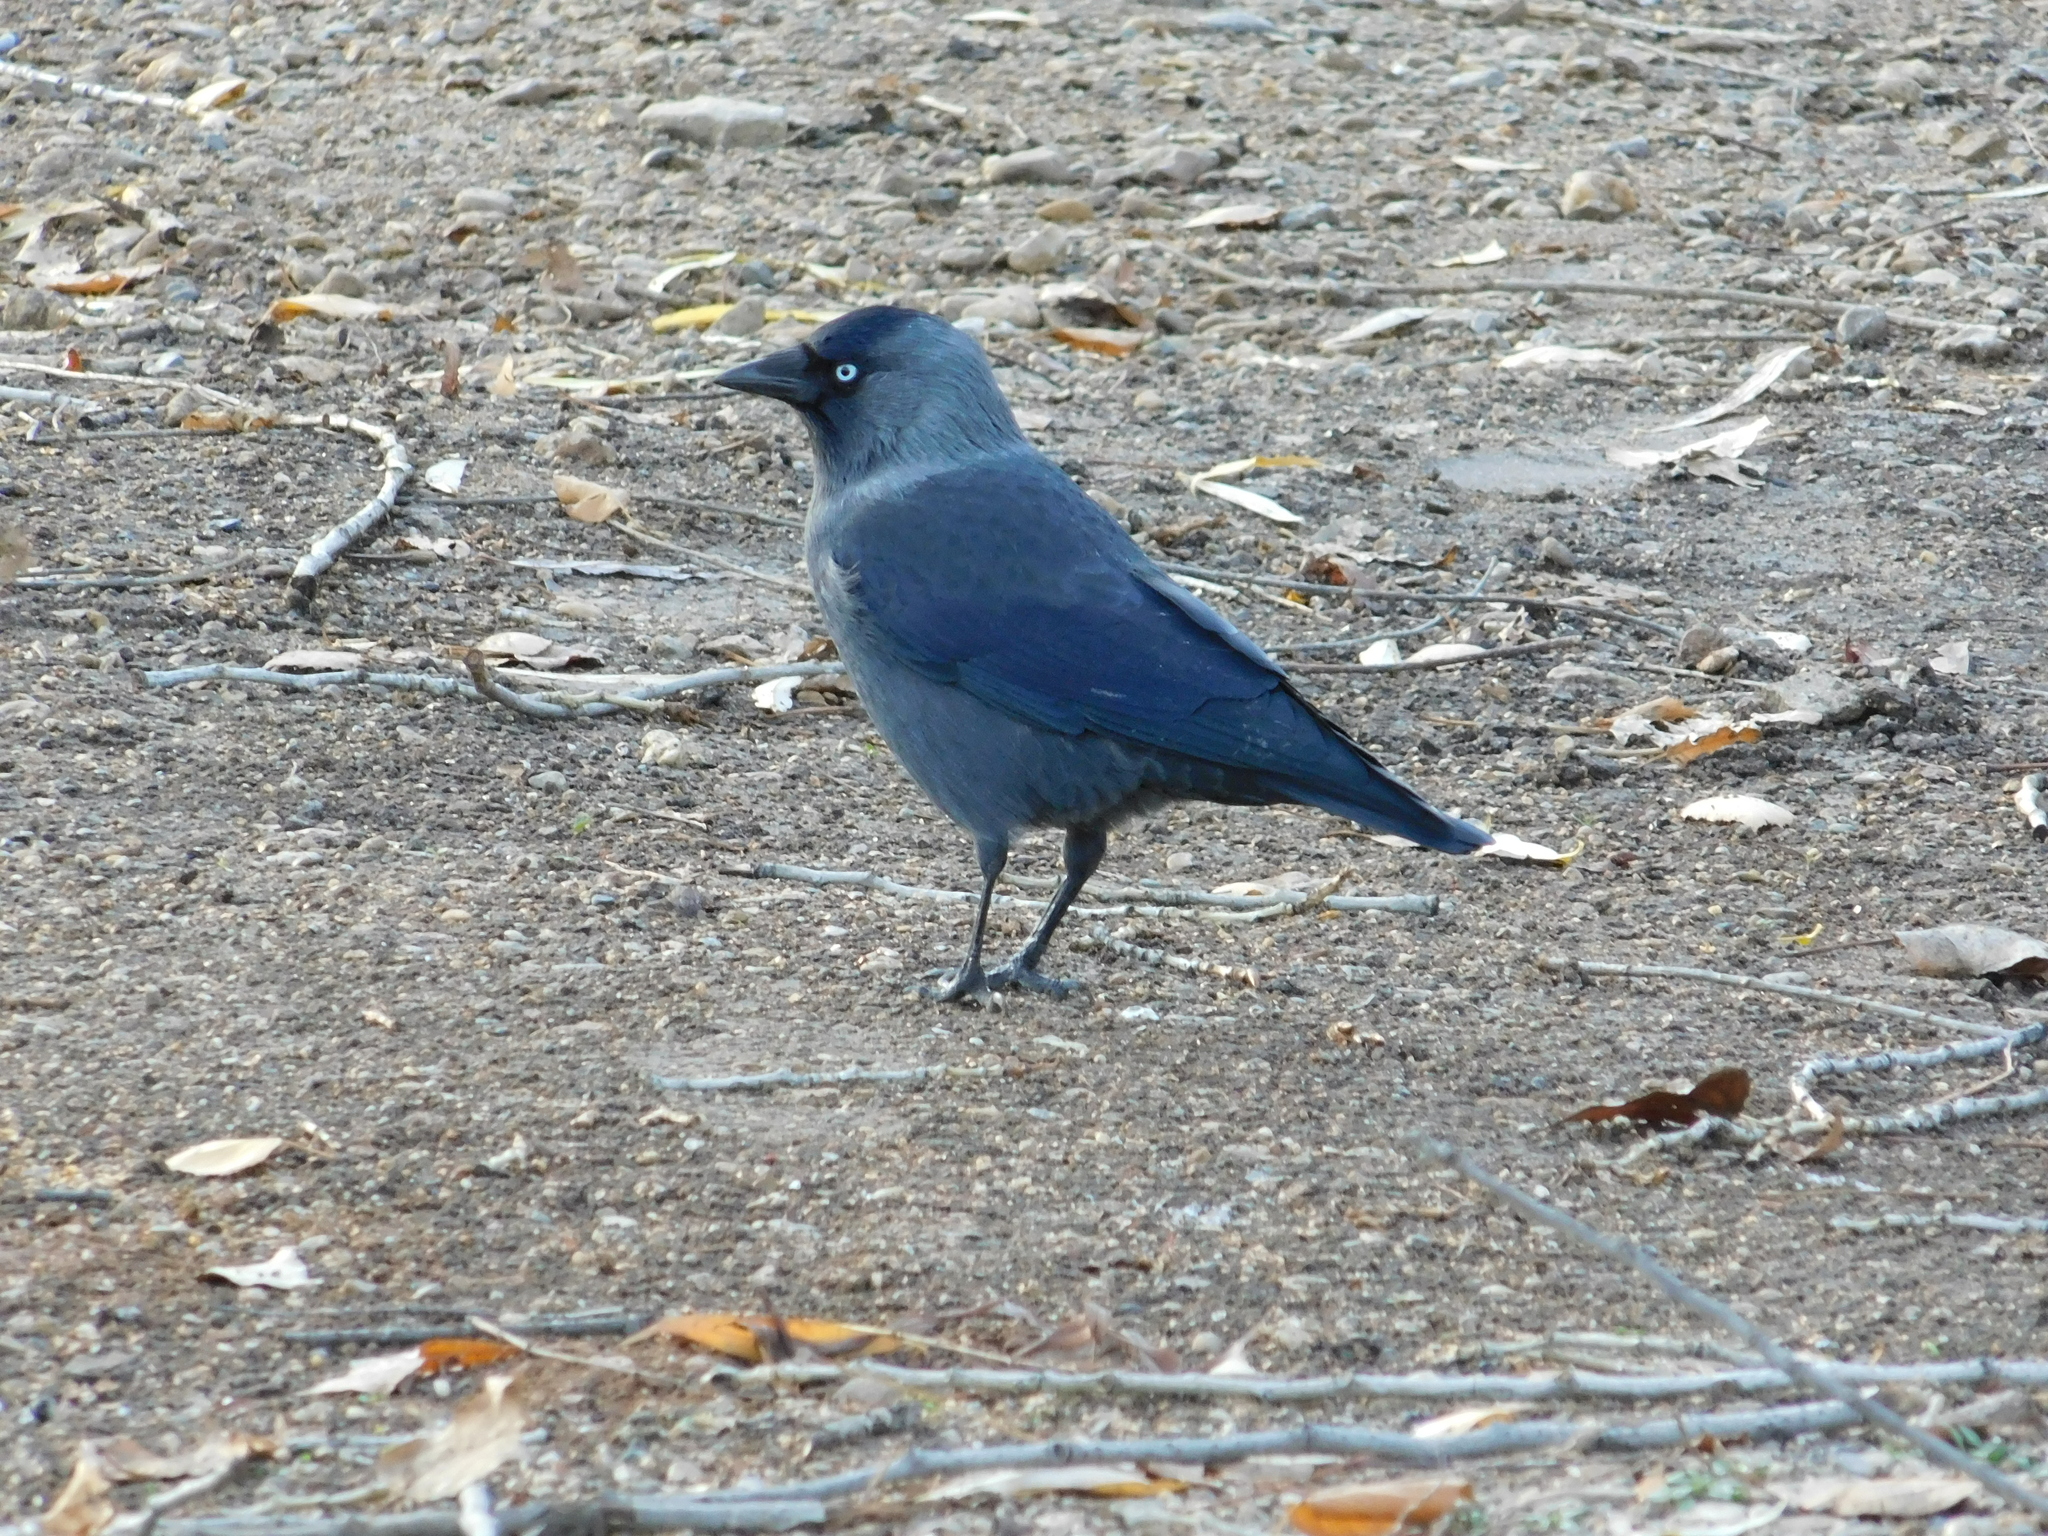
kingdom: Animalia
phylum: Chordata
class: Aves
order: Passeriformes
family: Corvidae
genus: Coloeus
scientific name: Coloeus monedula
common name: Western jackdaw
